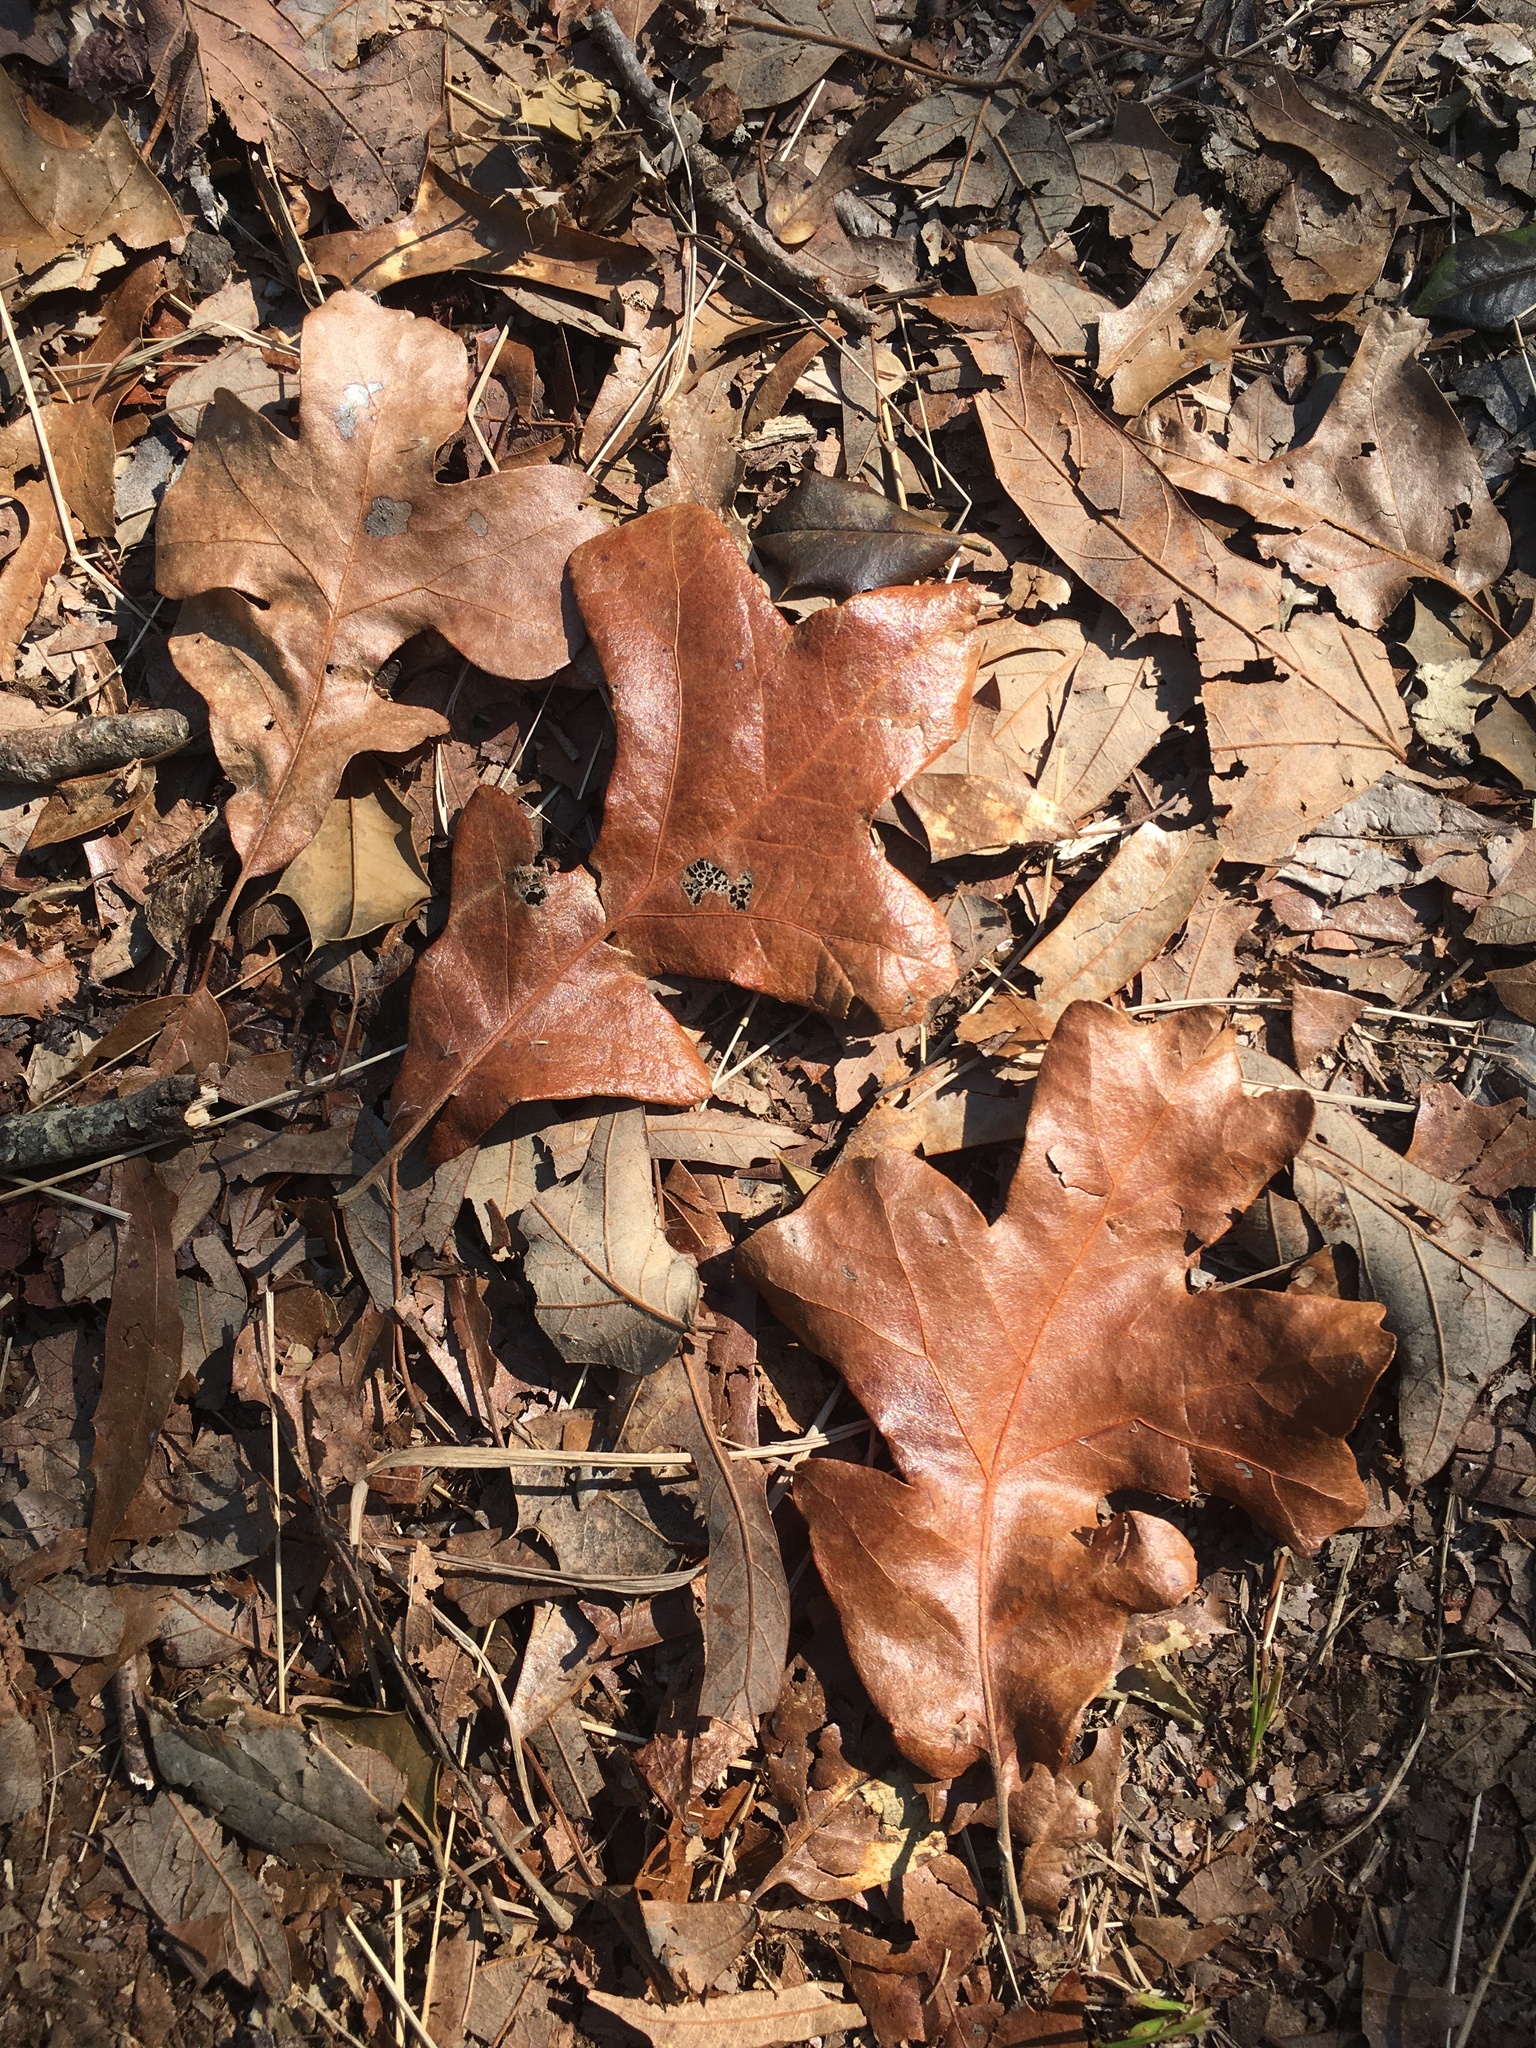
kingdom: Plantae
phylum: Tracheophyta
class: Magnoliopsida
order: Fagales
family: Fagaceae
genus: Quercus
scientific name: Quercus stellata
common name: Post oak
